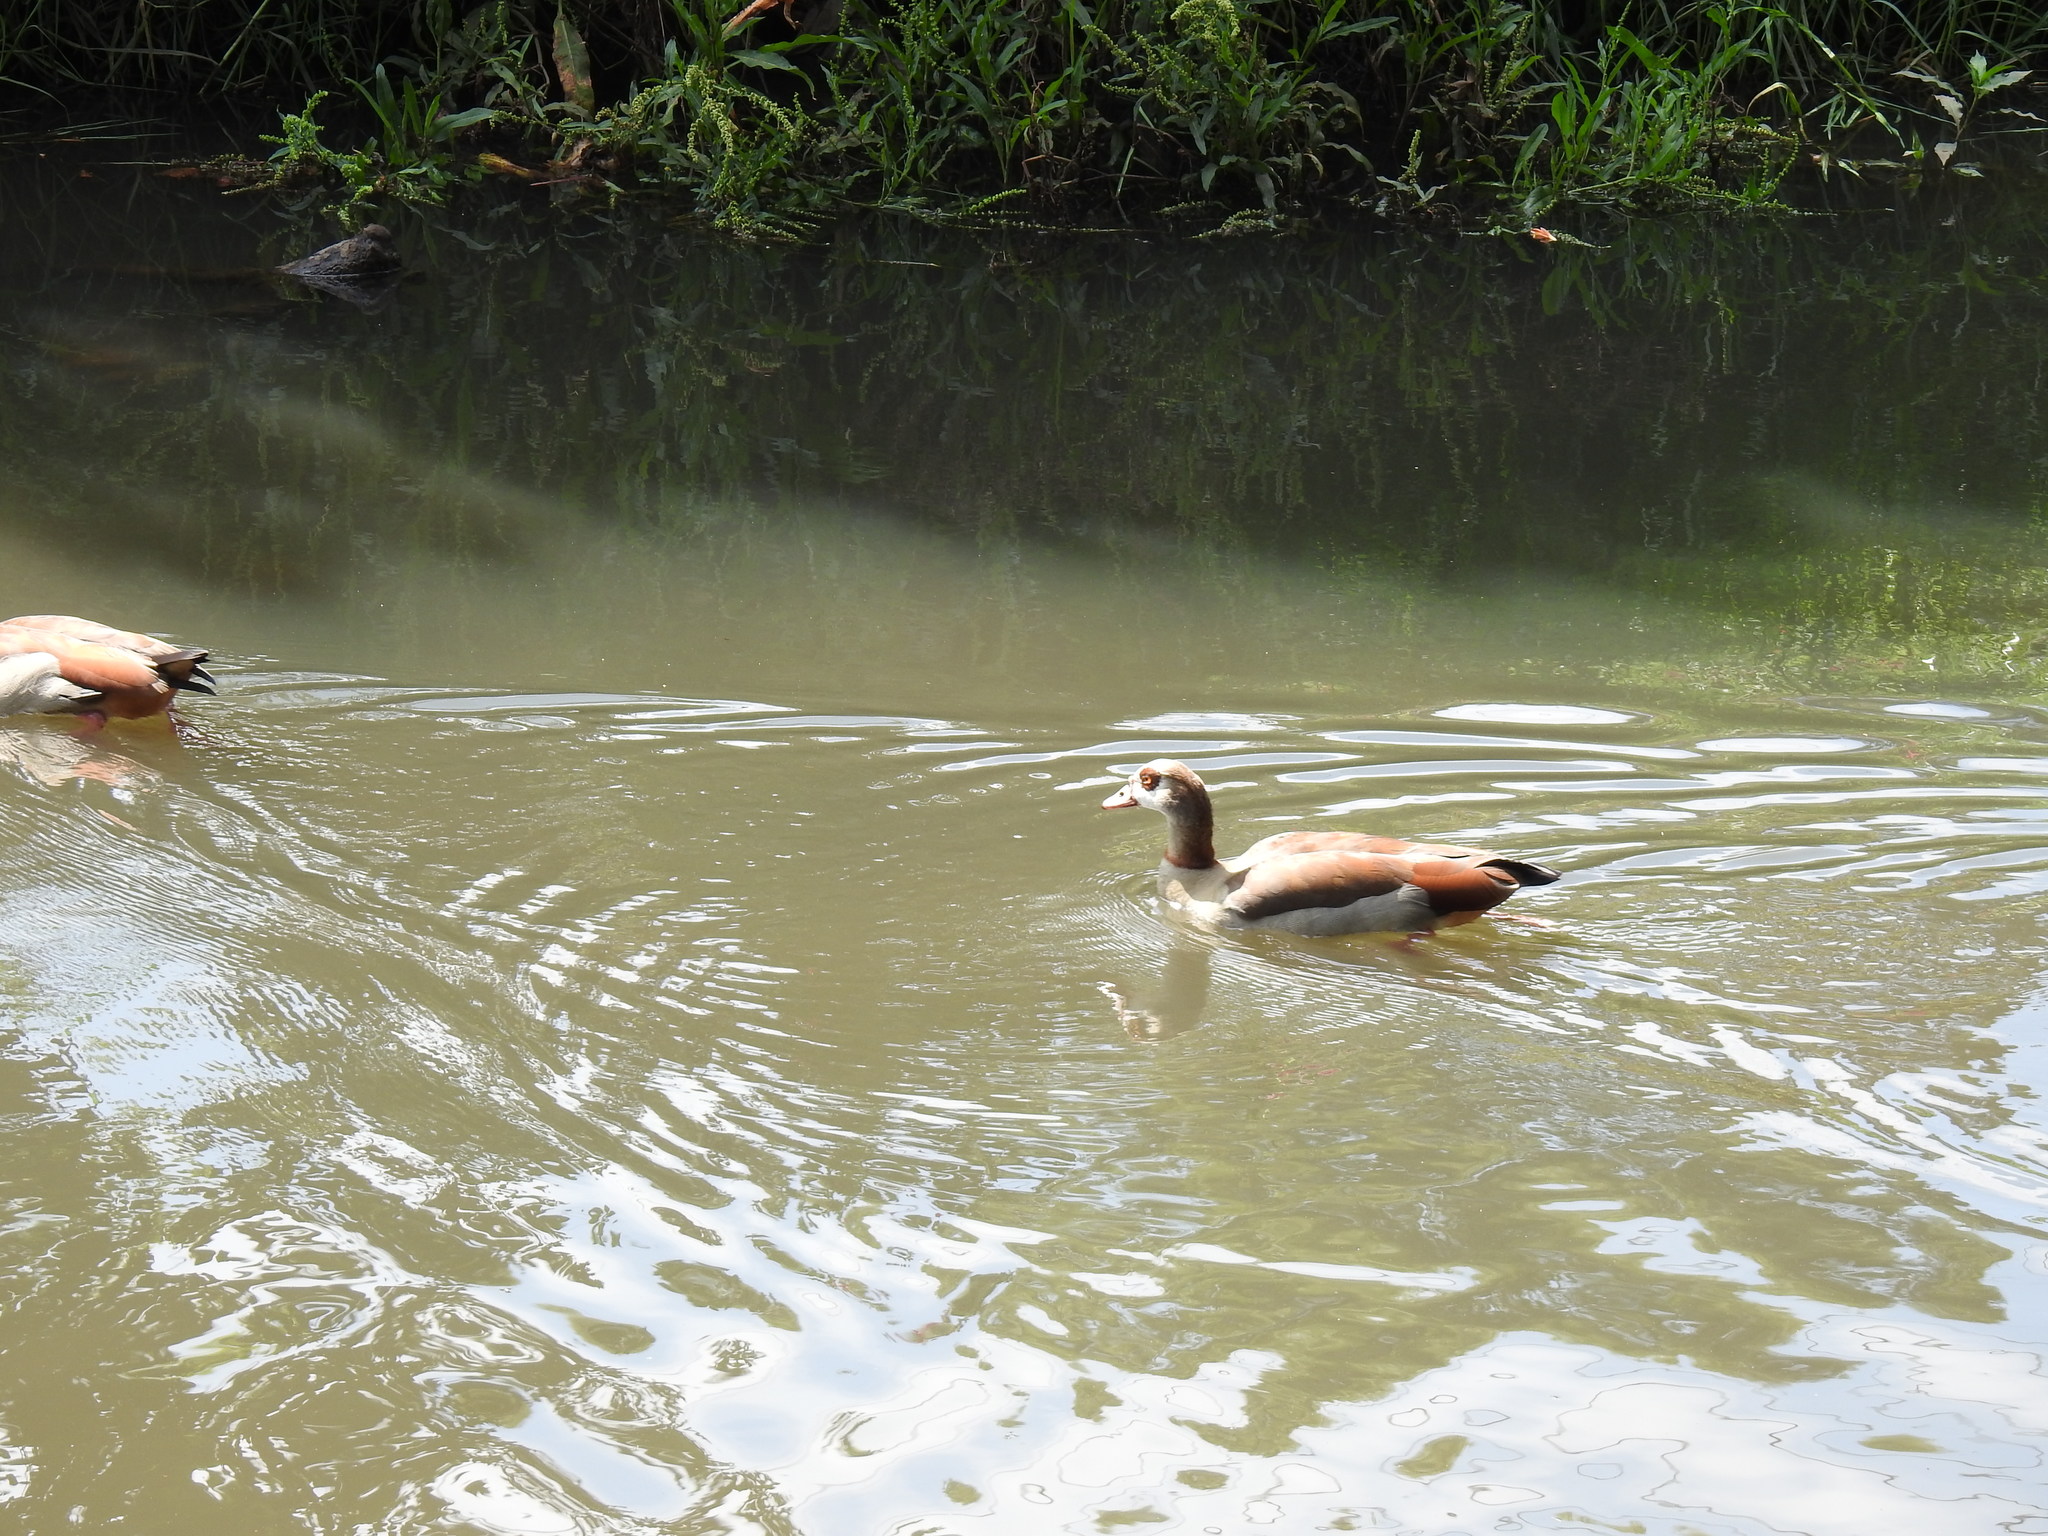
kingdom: Animalia
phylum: Chordata
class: Aves
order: Anseriformes
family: Anatidae
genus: Alopochen
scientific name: Alopochen aegyptiaca
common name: Egyptian goose
